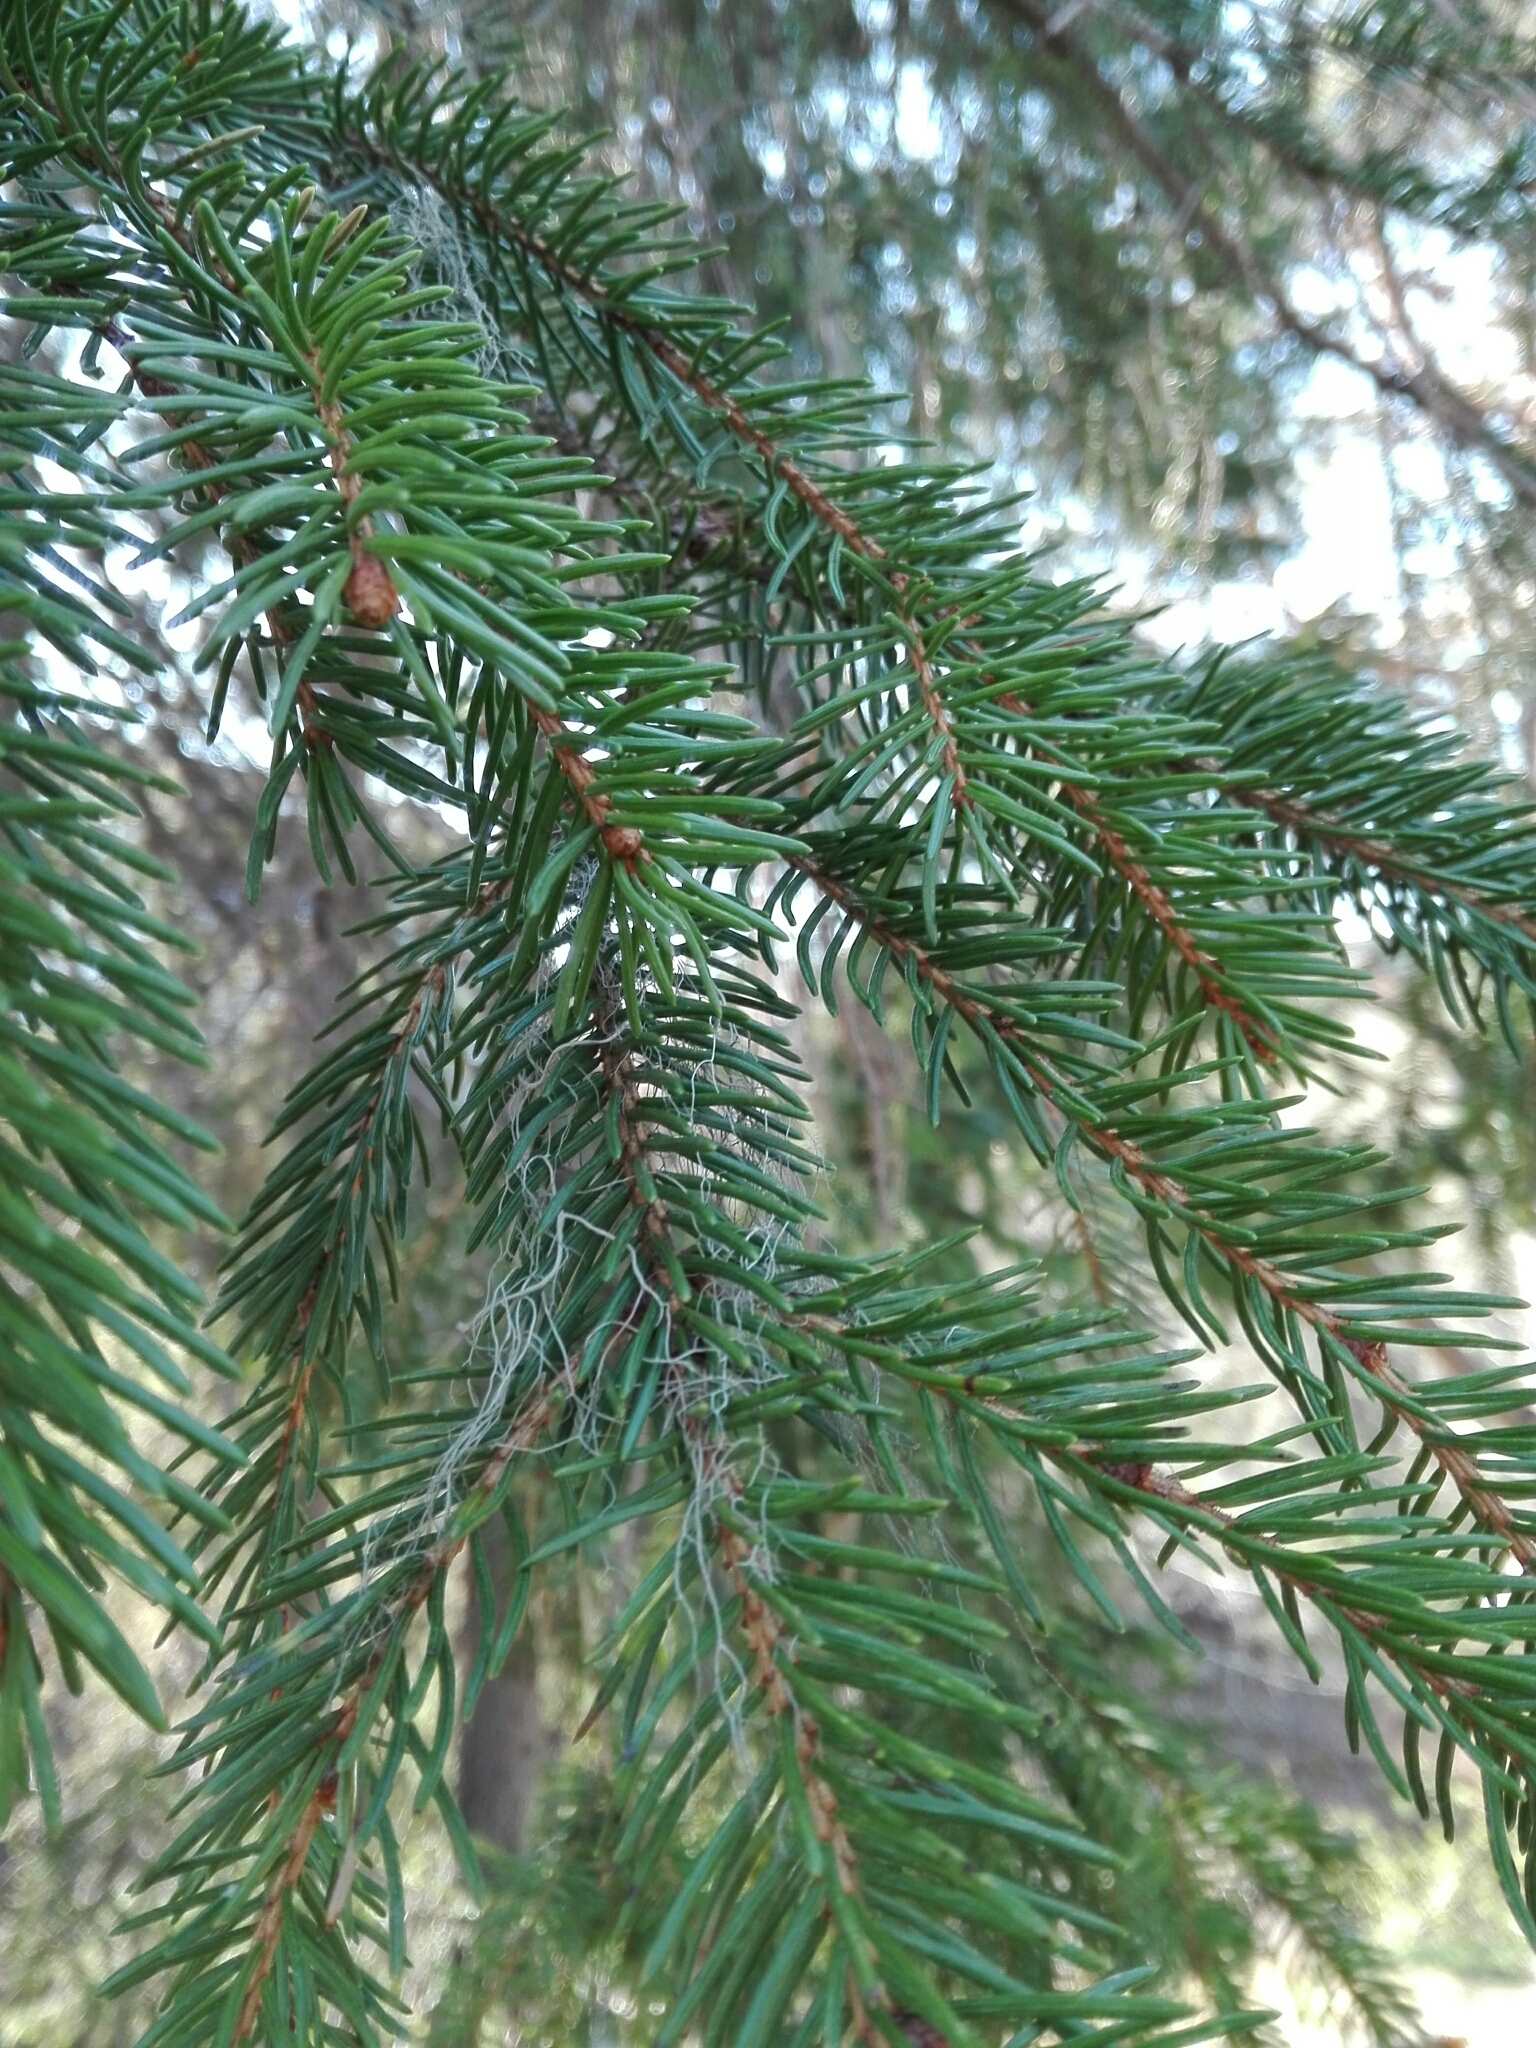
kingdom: Plantae
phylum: Tracheophyta
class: Pinopsida
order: Pinales
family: Pinaceae
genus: Picea
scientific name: Picea abies
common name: Norway spruce
